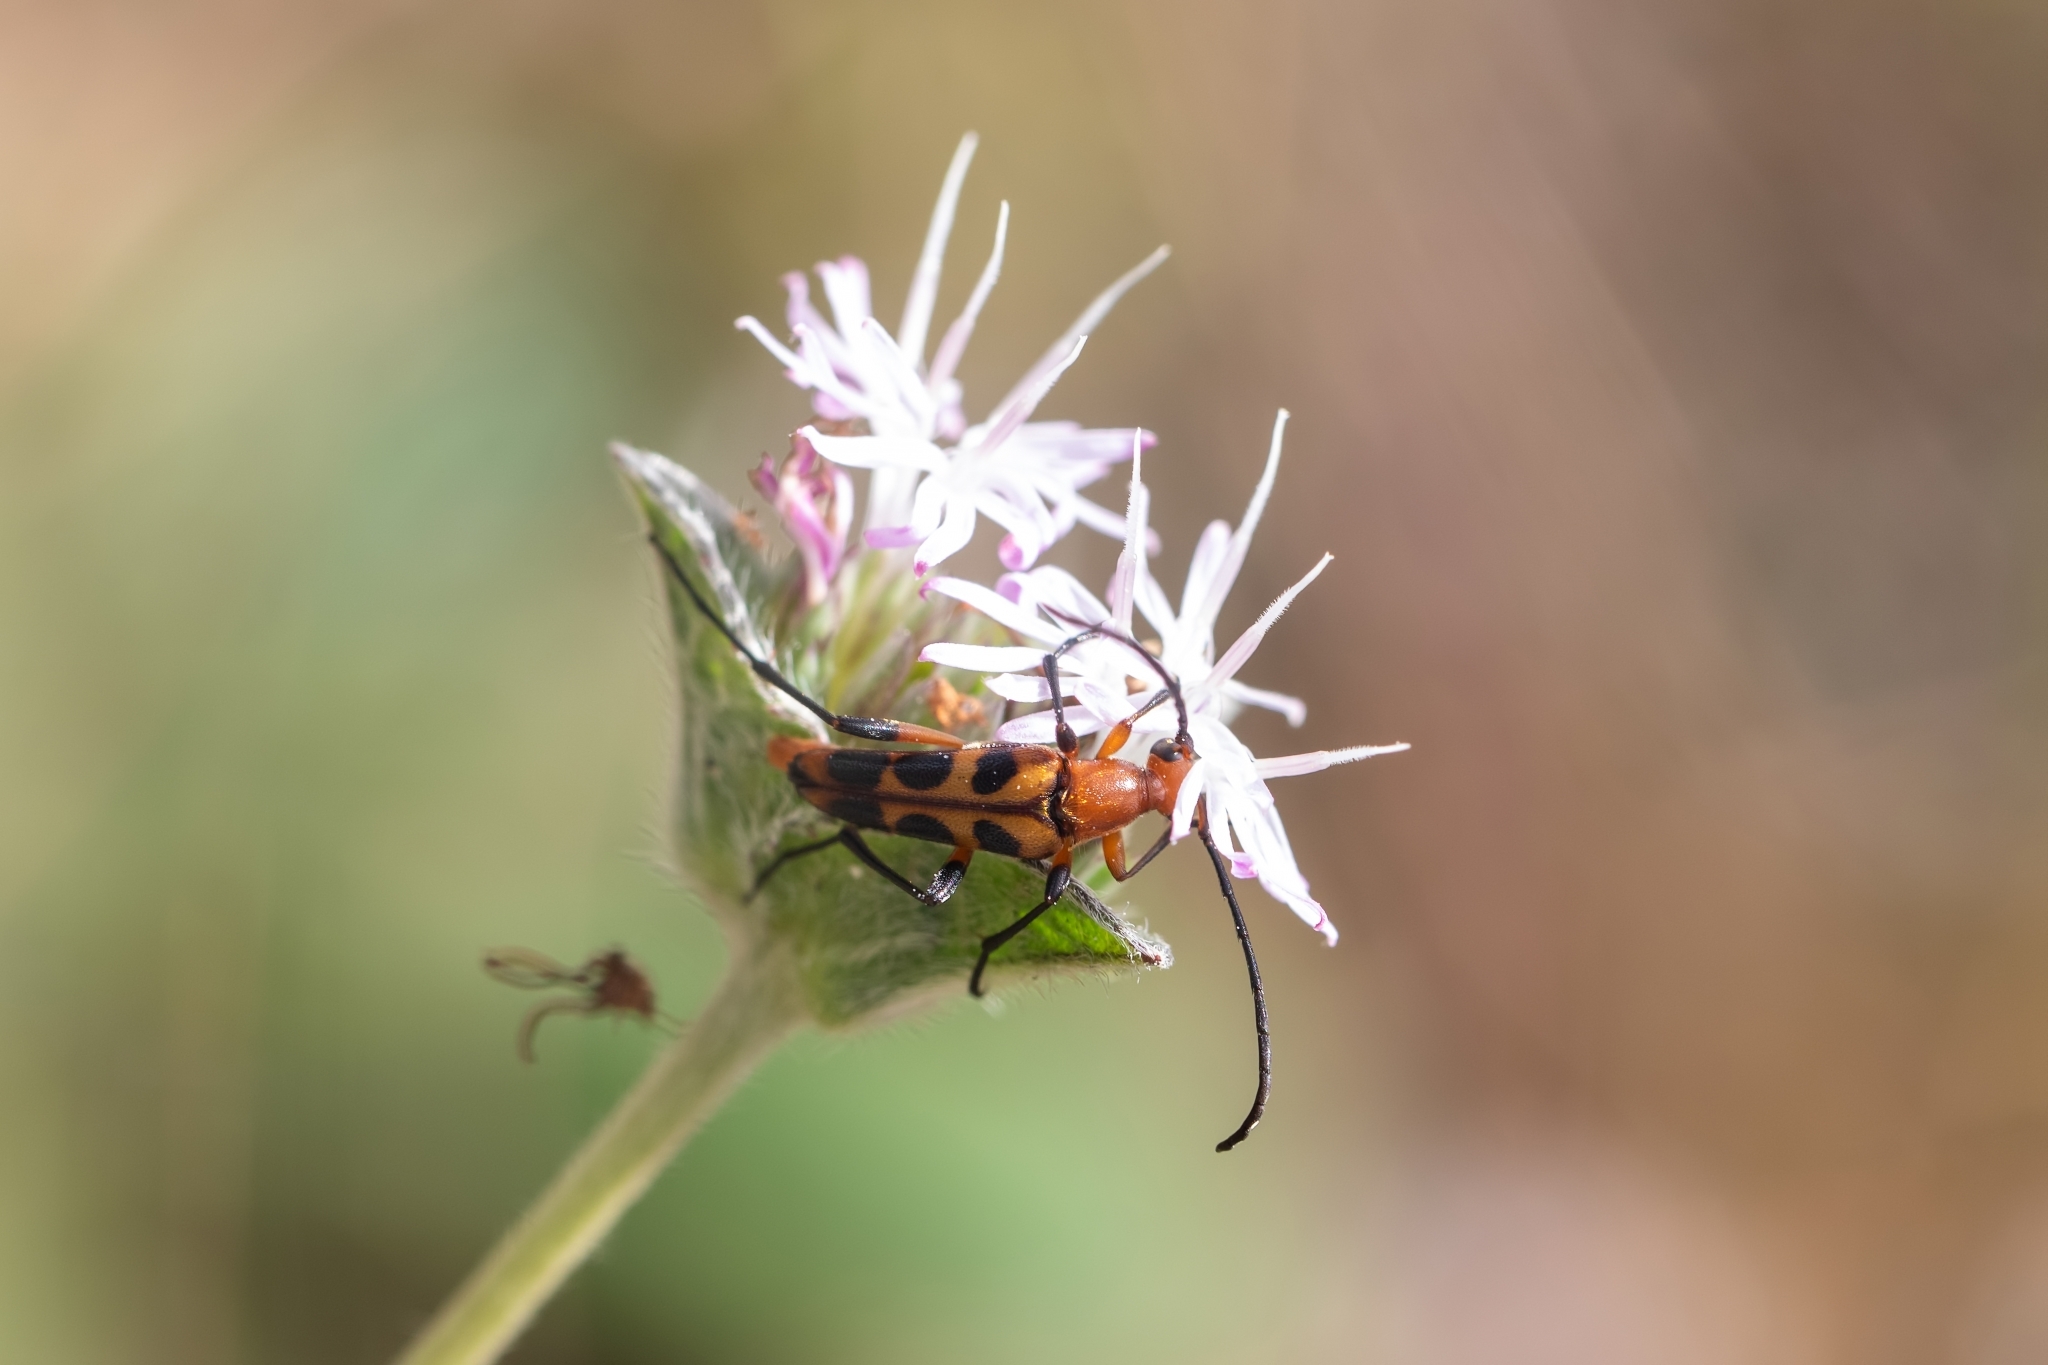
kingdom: Animalia
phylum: Arthropoda
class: Insecta
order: Coleoptera
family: Cerambycidae
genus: Strangalia
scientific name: Strangalia sexnotata
